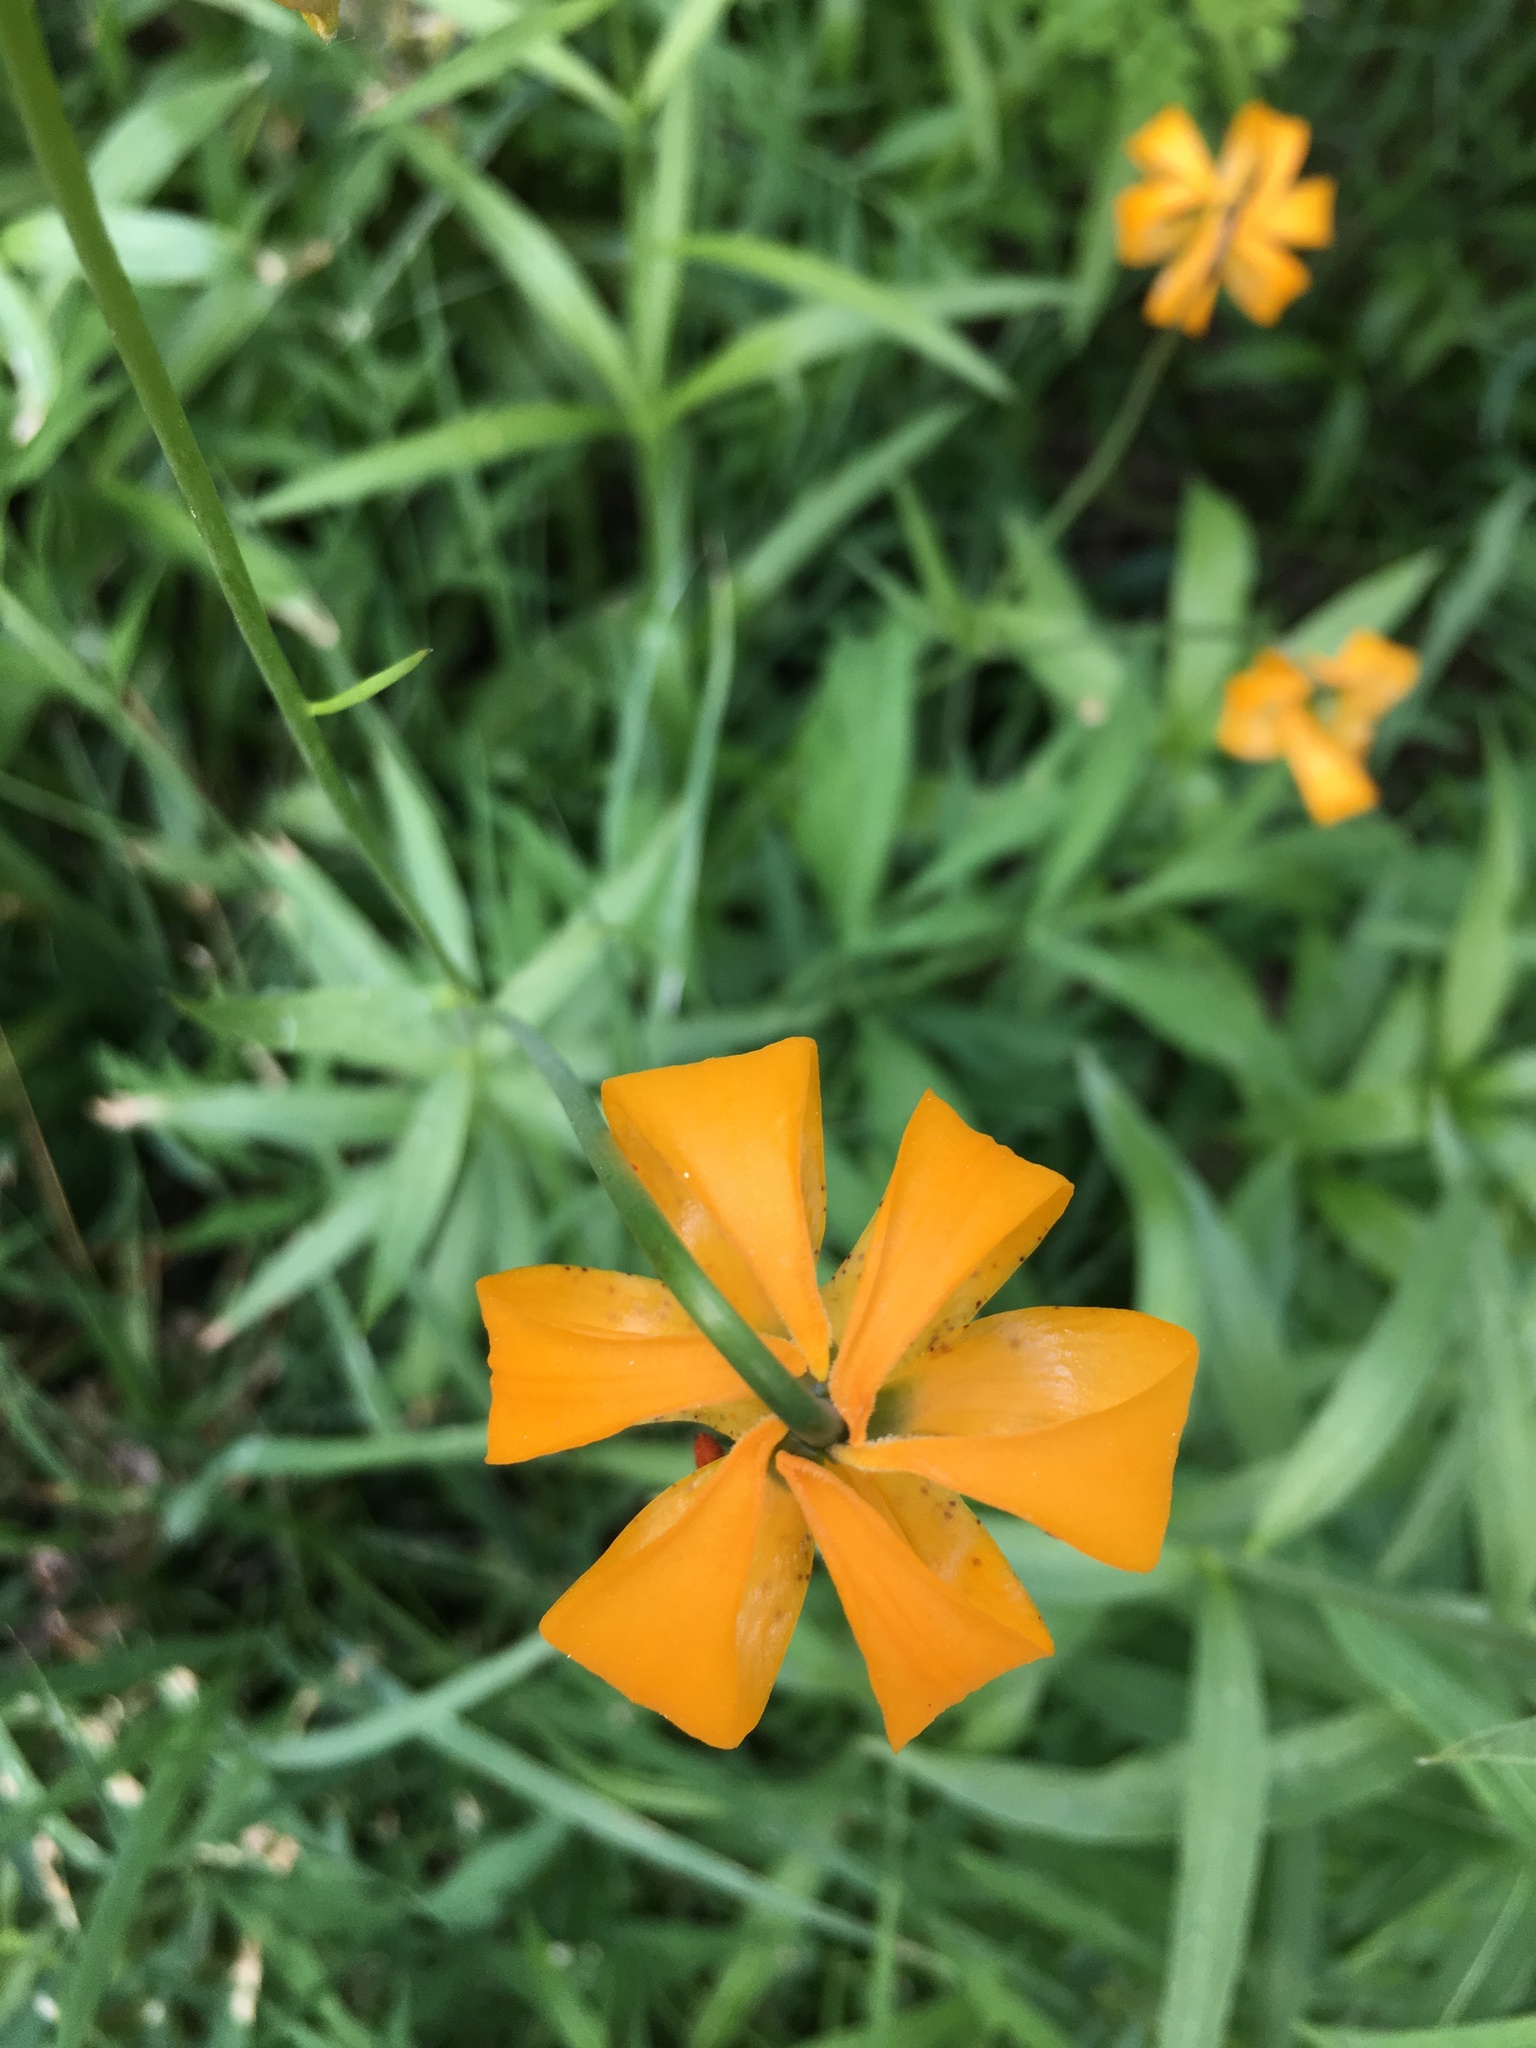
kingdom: Plantae
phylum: Tracheophyta
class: Liliopsida
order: Liliales
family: Liliaceae
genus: Lilium
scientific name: Lilium kelleyanum
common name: Kelley's lily
